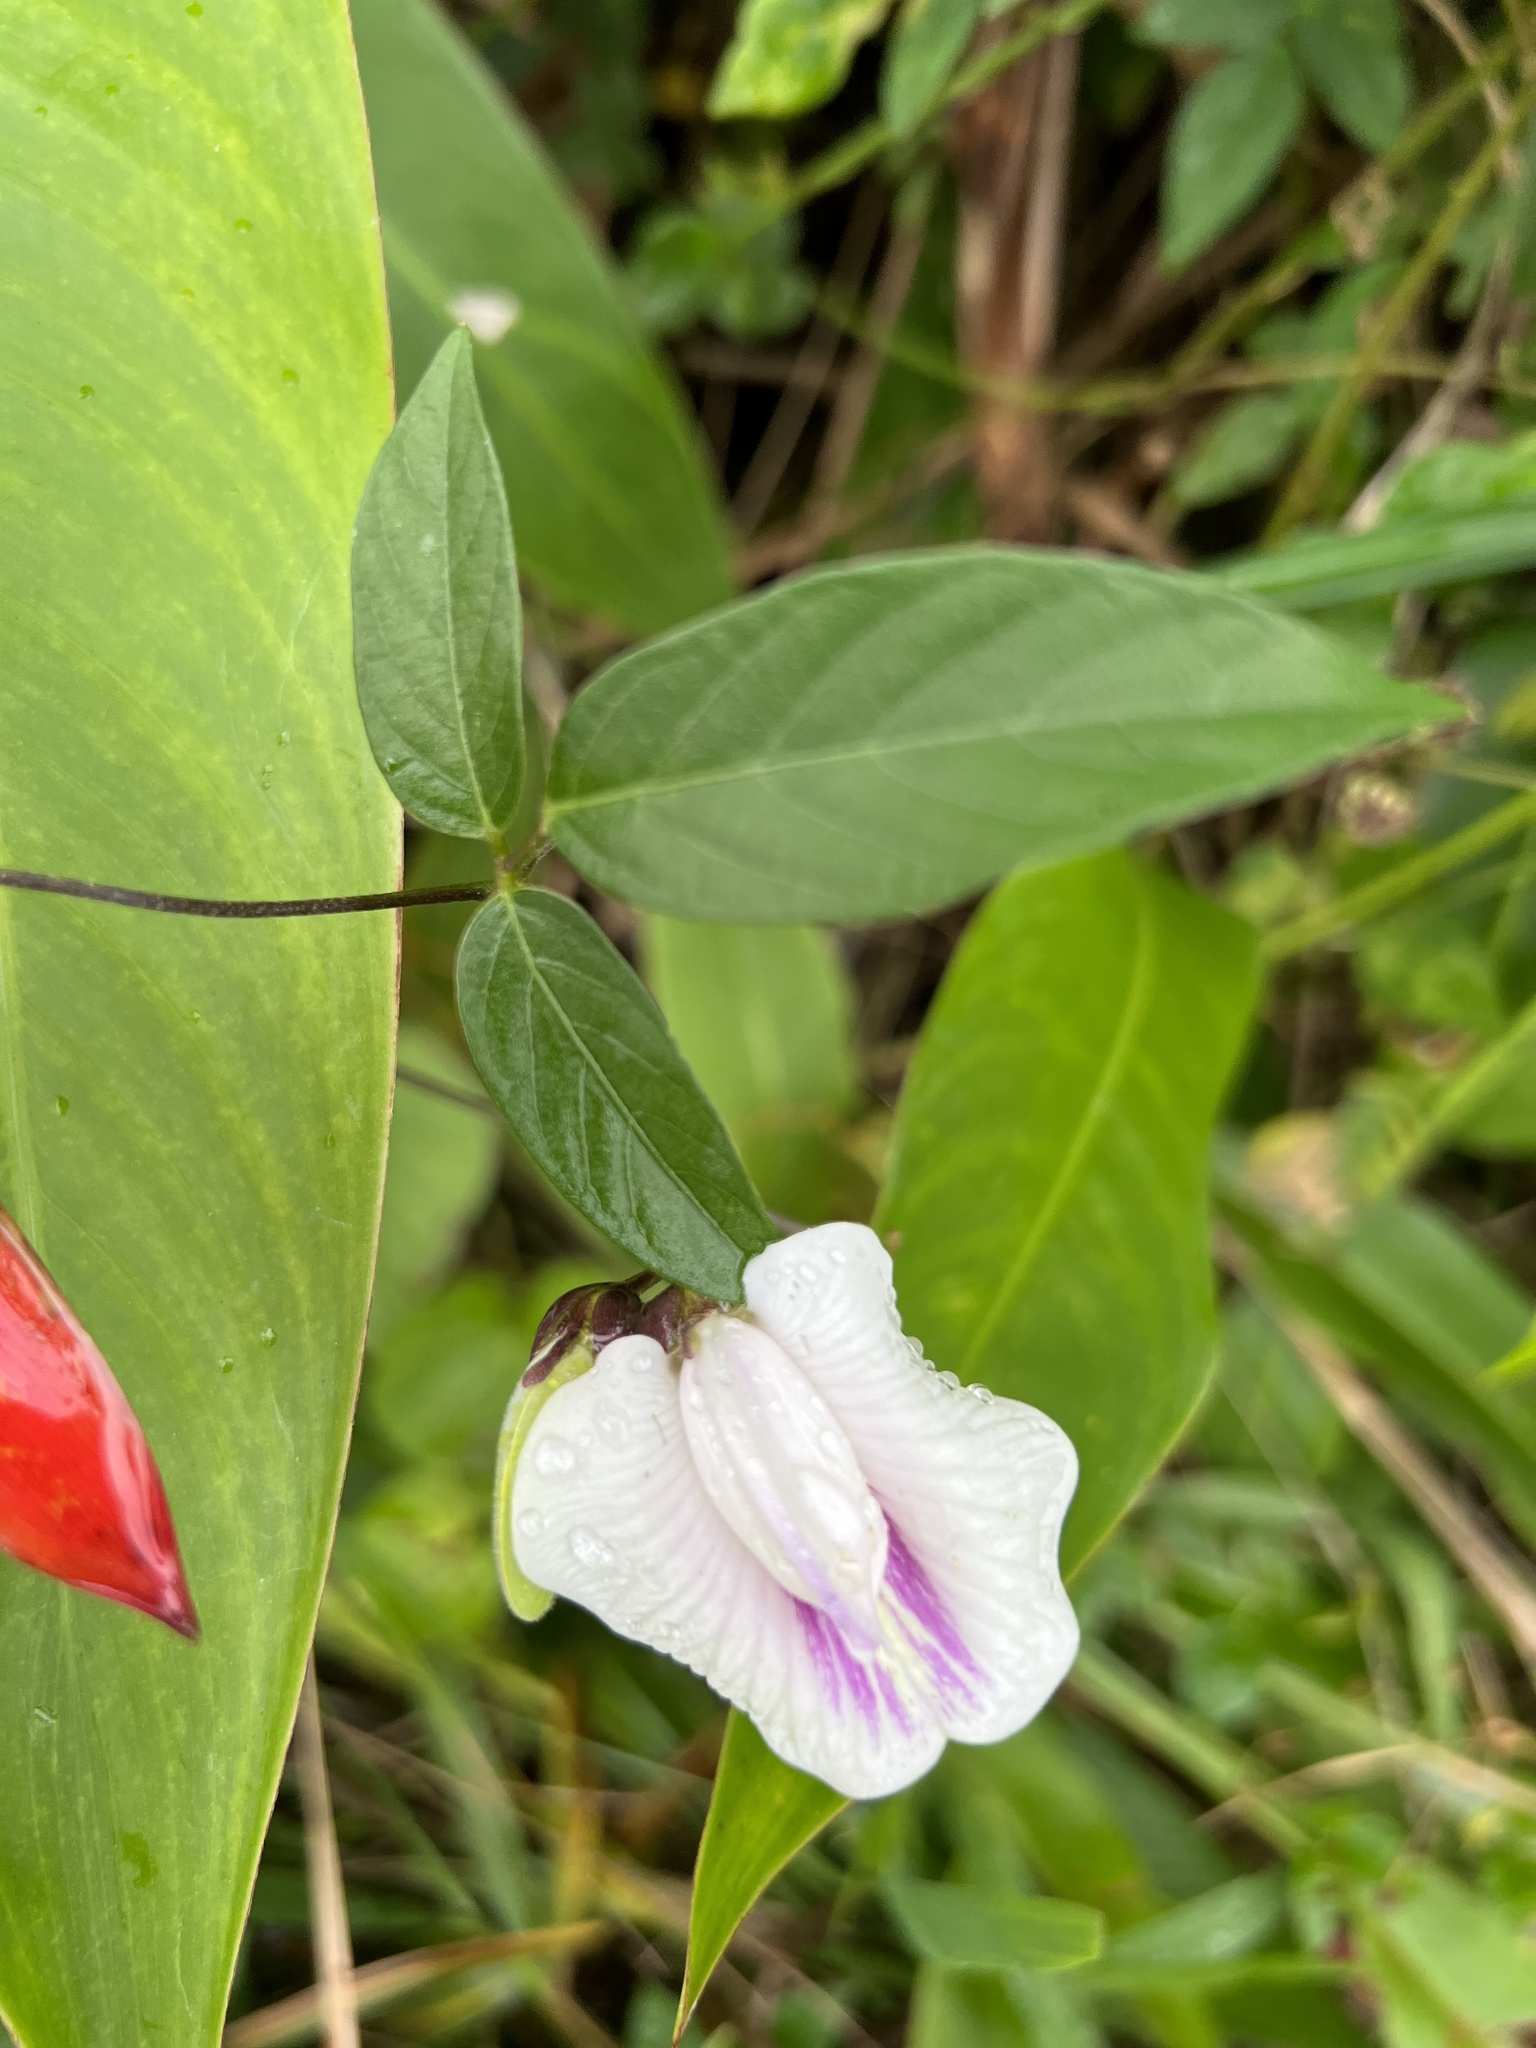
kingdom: Plantae
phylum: Tracheophyta
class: Magnoliopsida
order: Fabales
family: Fabaceae
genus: Centrosema
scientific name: Centrosema pubescens
